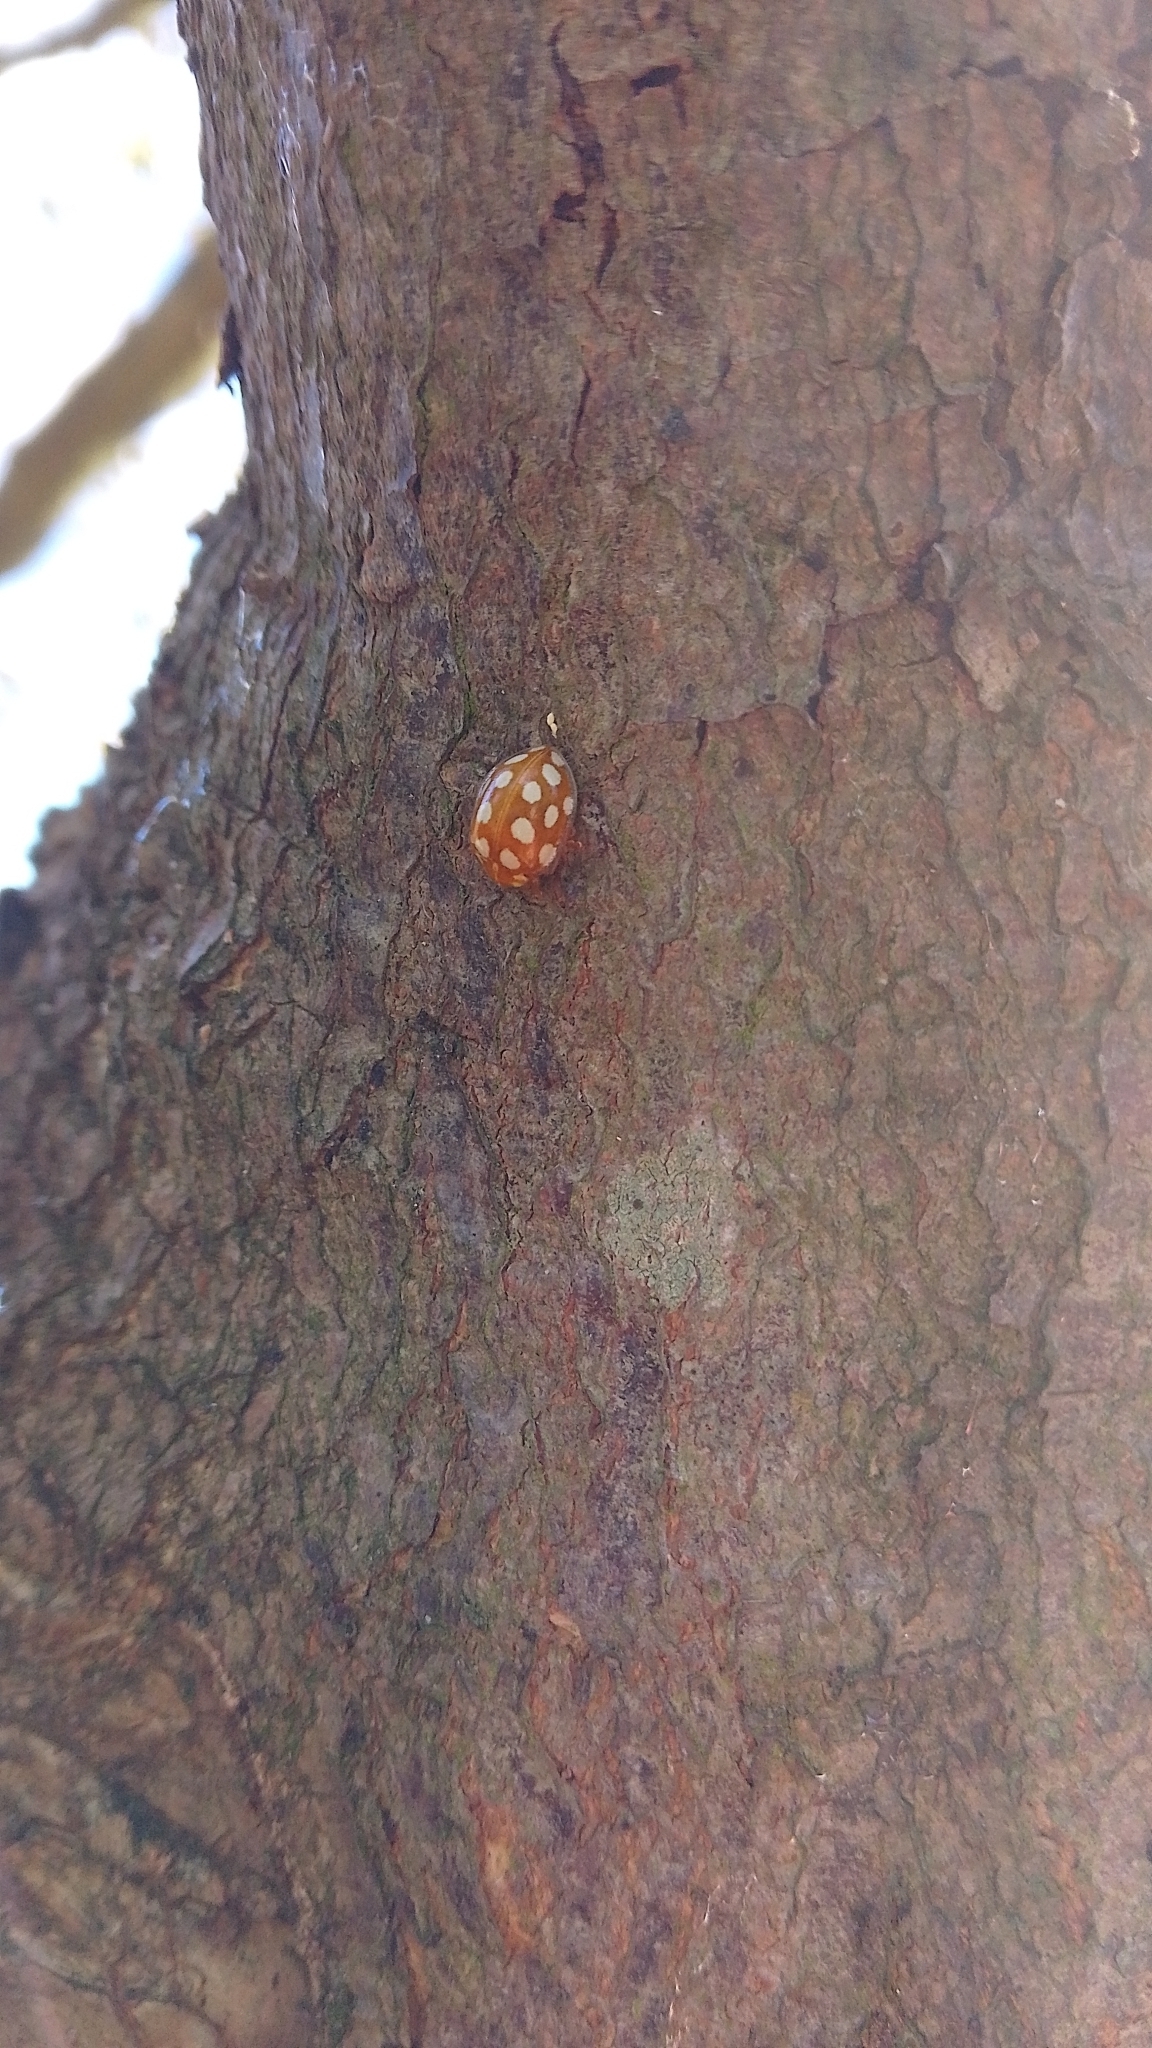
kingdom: Animalia
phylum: Arthropoda
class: Insecta
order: Coleoptera
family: Coccinellidae
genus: Halyzia
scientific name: Halyzia sedecimguttata
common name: Orange ladybird
